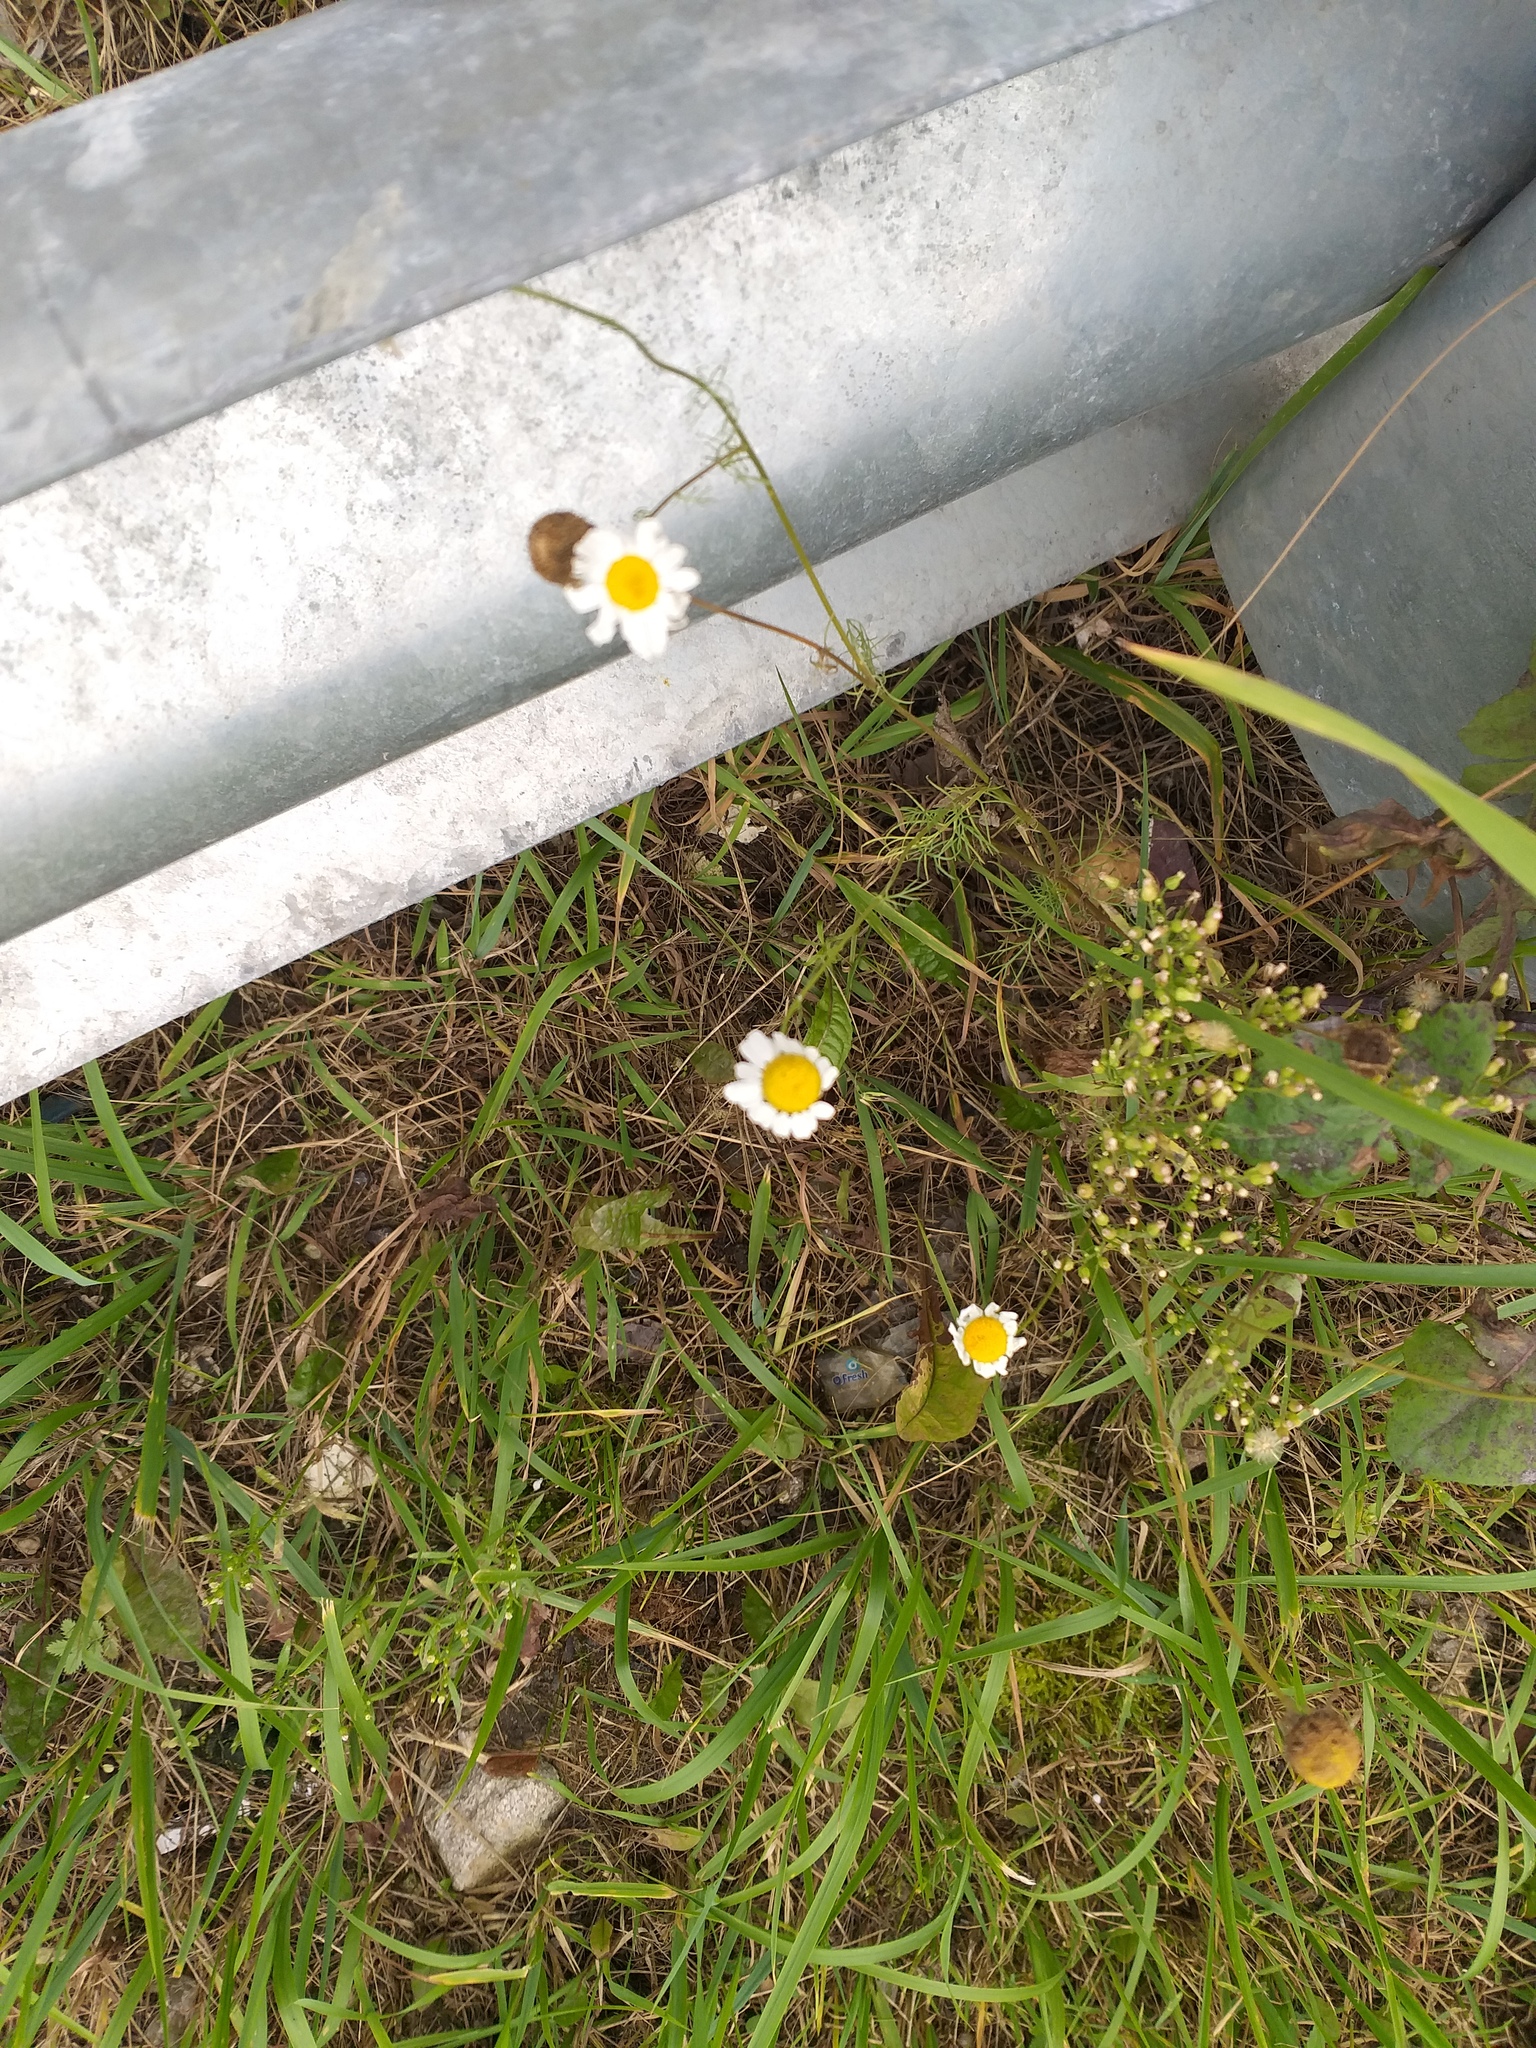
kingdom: Plantae
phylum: Tracheophyta
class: Magnoliopsida
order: Asterales
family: Asteraceae
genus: Tripleurospermum
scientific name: Tripleurospermum inodorum
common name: Scentless mayweed
